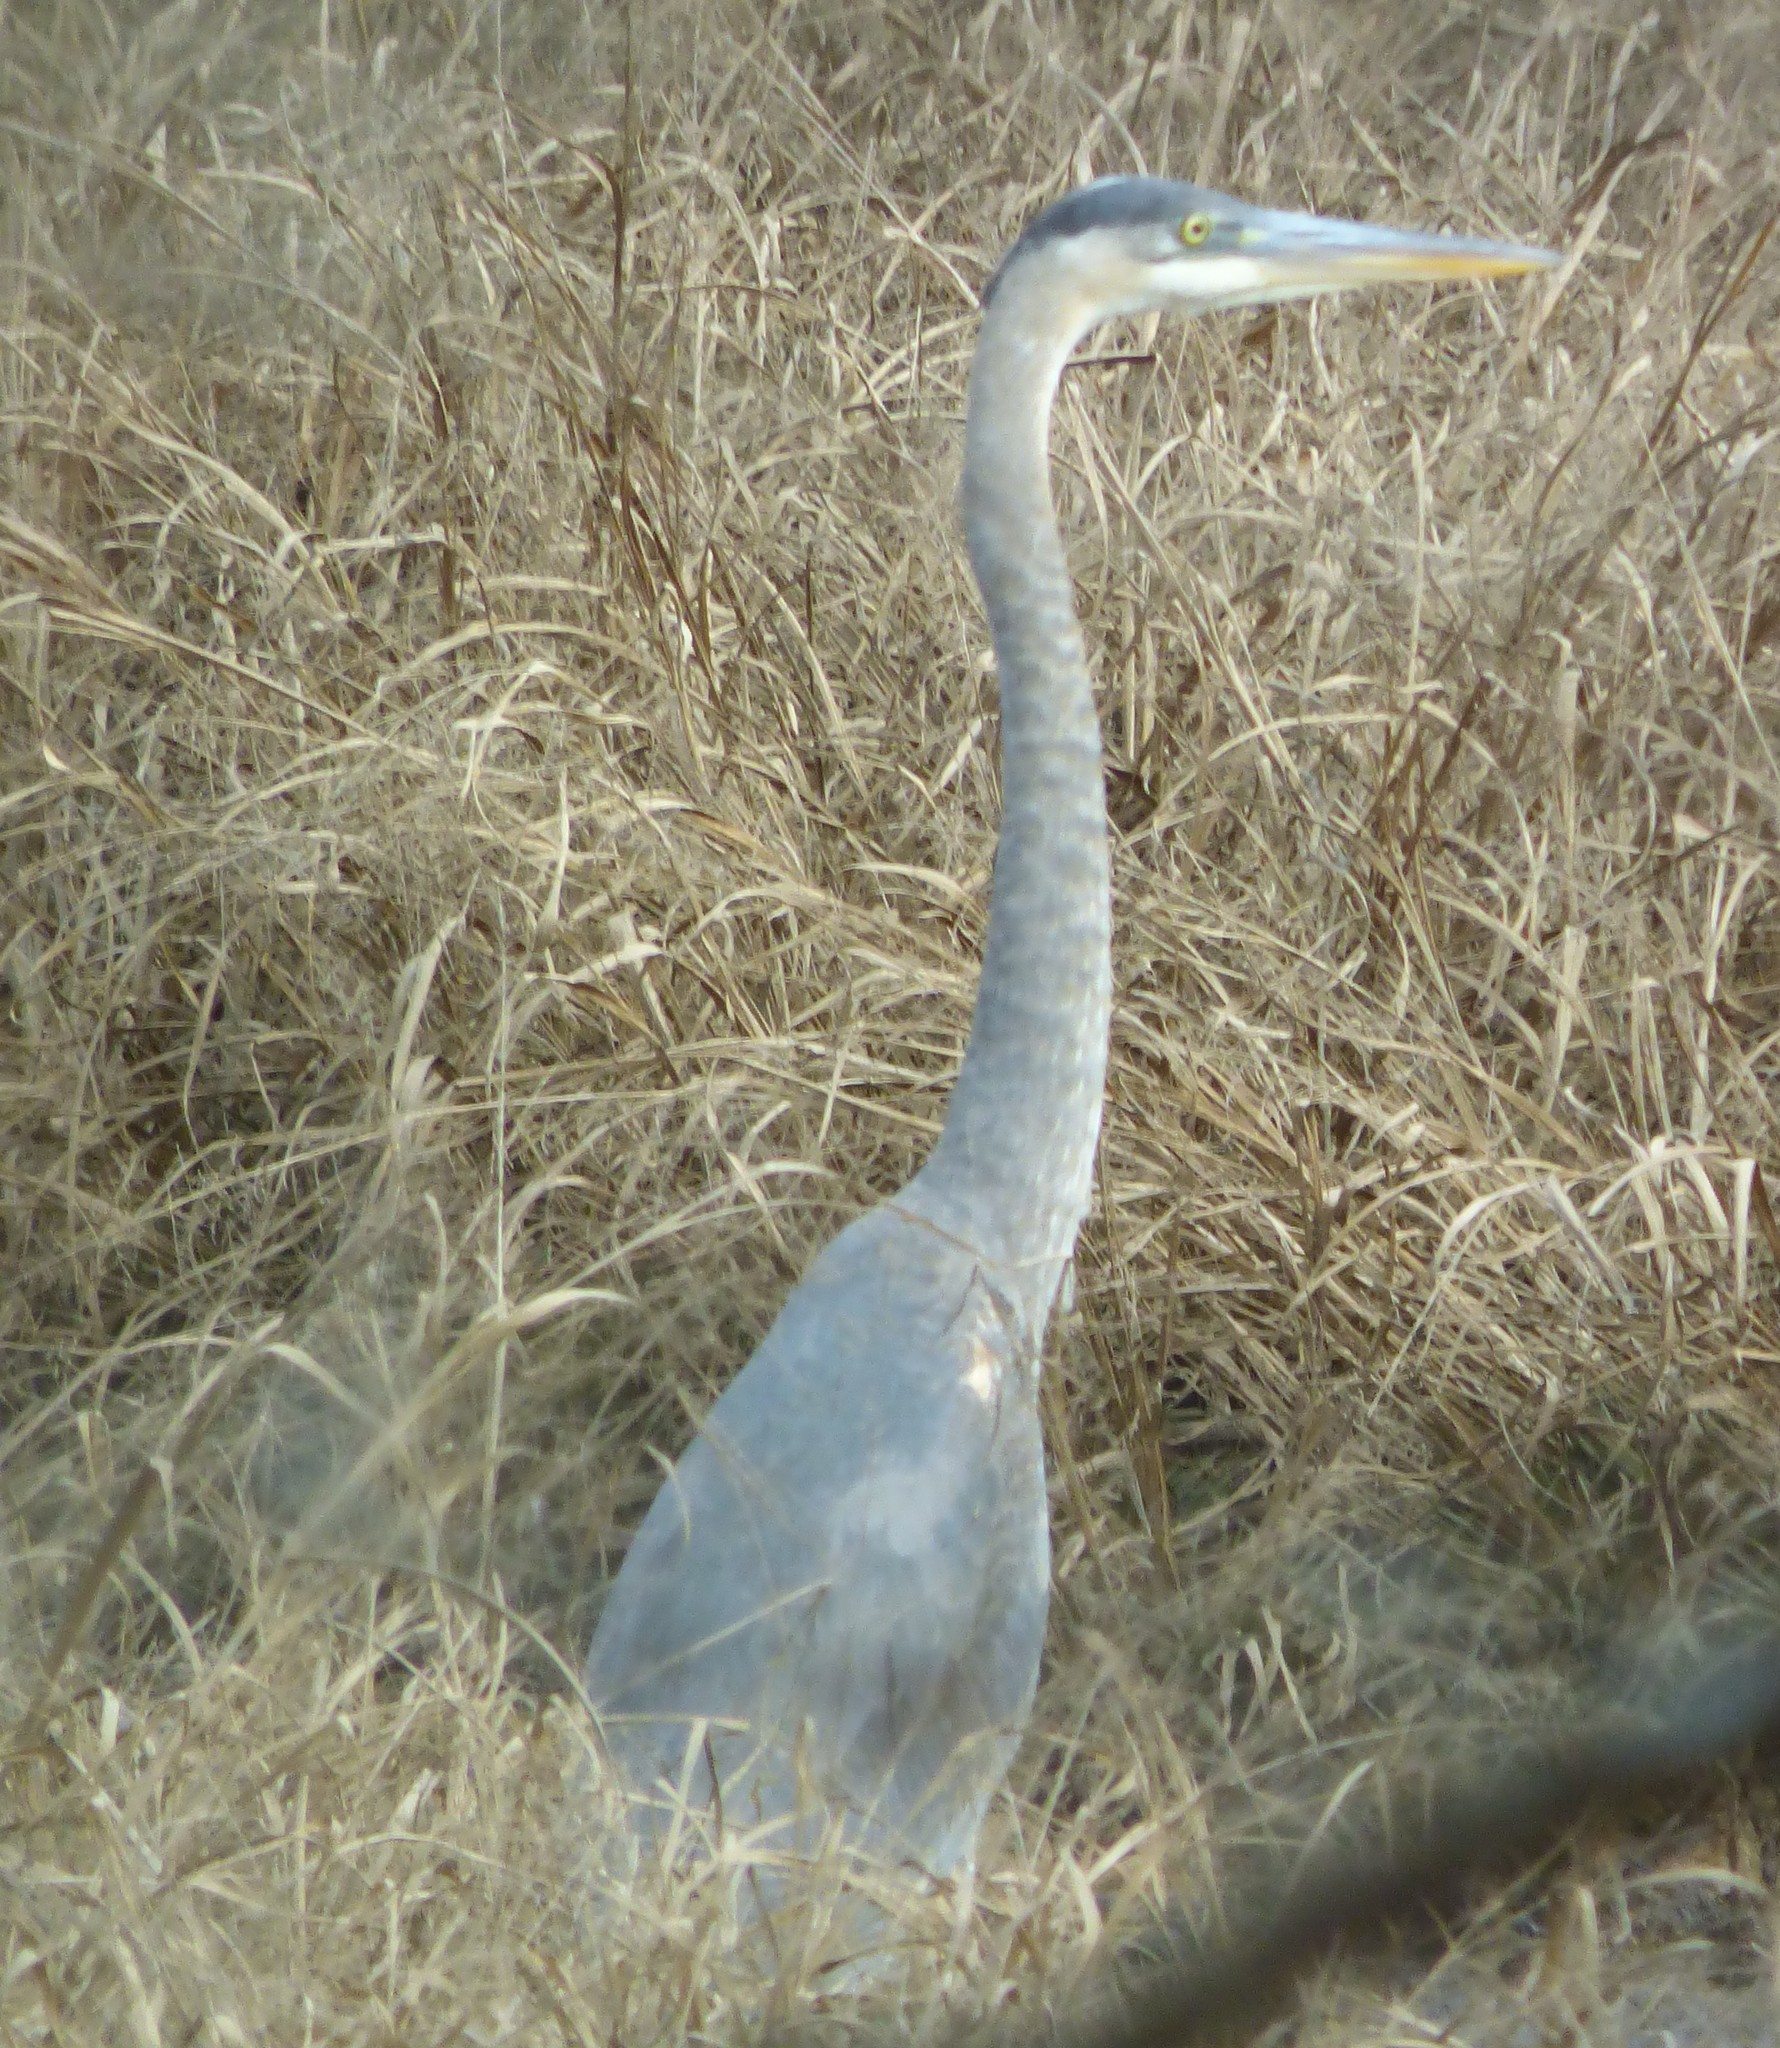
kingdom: Animalia
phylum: Chordata
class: Aves
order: Pelecaniformes
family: Ardeidae
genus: Ardea
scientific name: Ardea herodias
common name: Great blue heron
